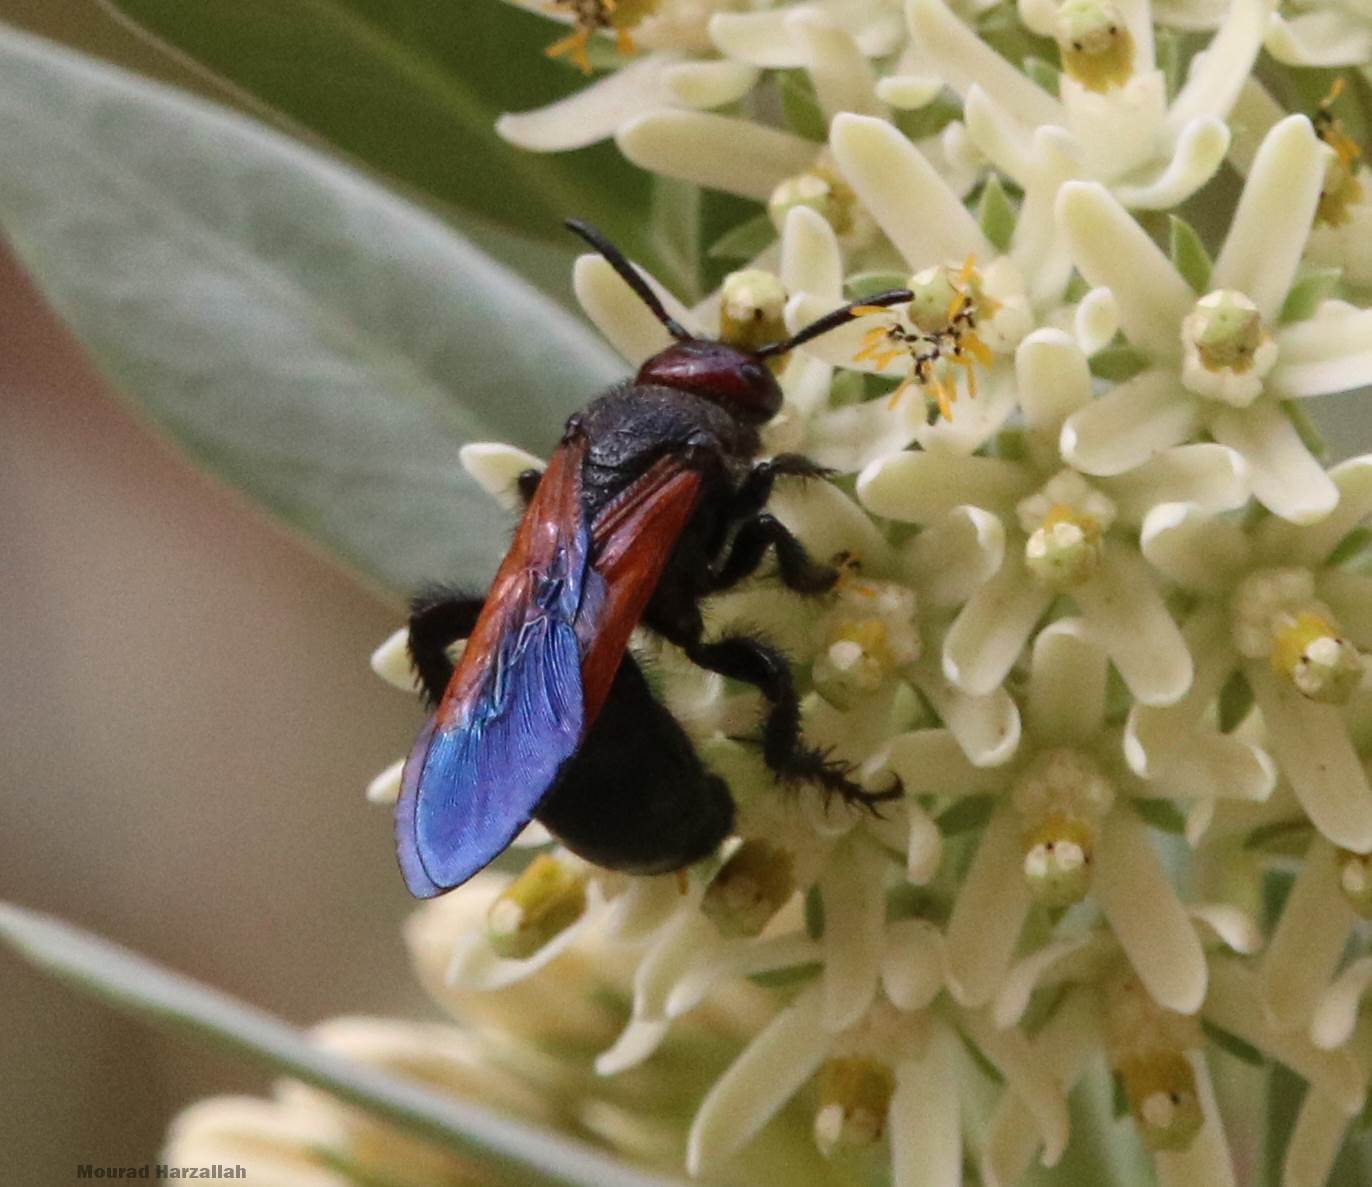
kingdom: Animalia
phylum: Arthropoda
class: Insecta
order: Hymenoptera
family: Scoliidae
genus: Campsomeriella
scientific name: Campsomeriella thoracica
